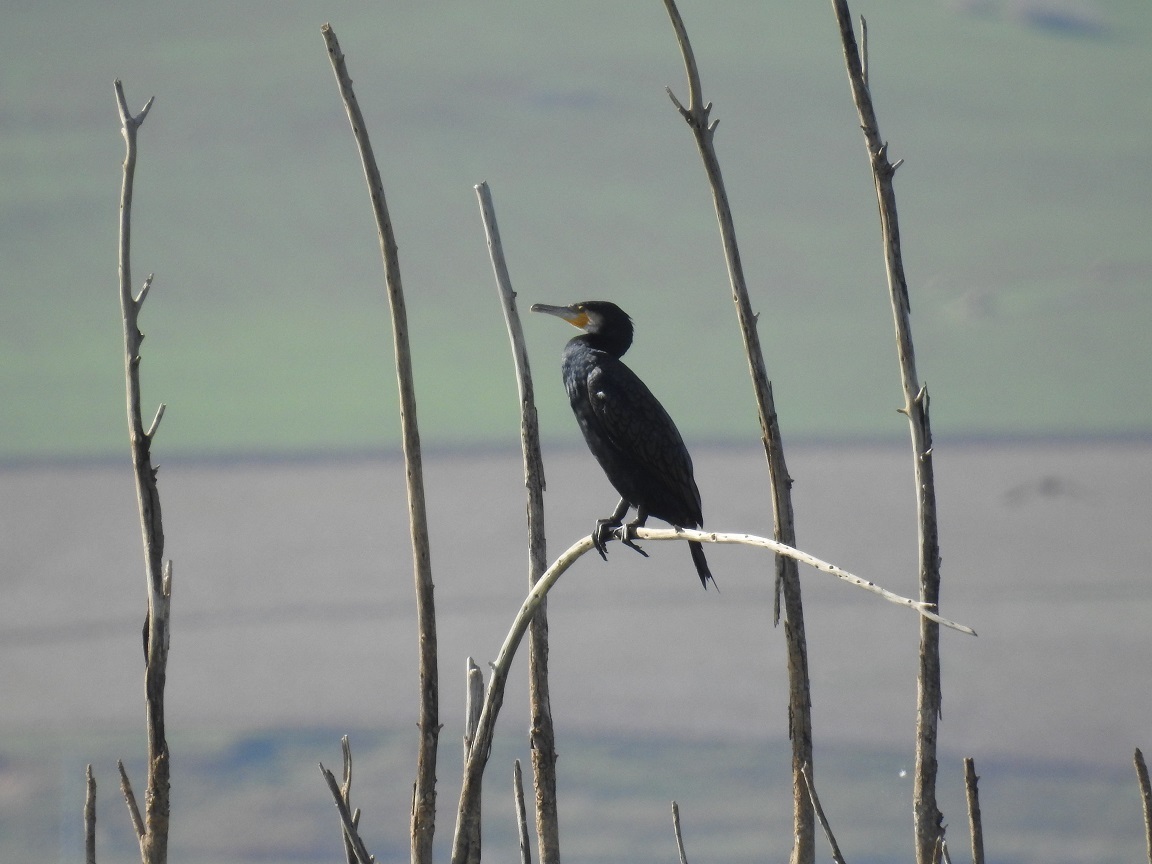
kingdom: Animalia
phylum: Chordata
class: Aves
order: Suliformes
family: Phalacrocoracidae
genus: Phalacrocorax
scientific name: Phalacrocorax carbo
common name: Great cormorant
